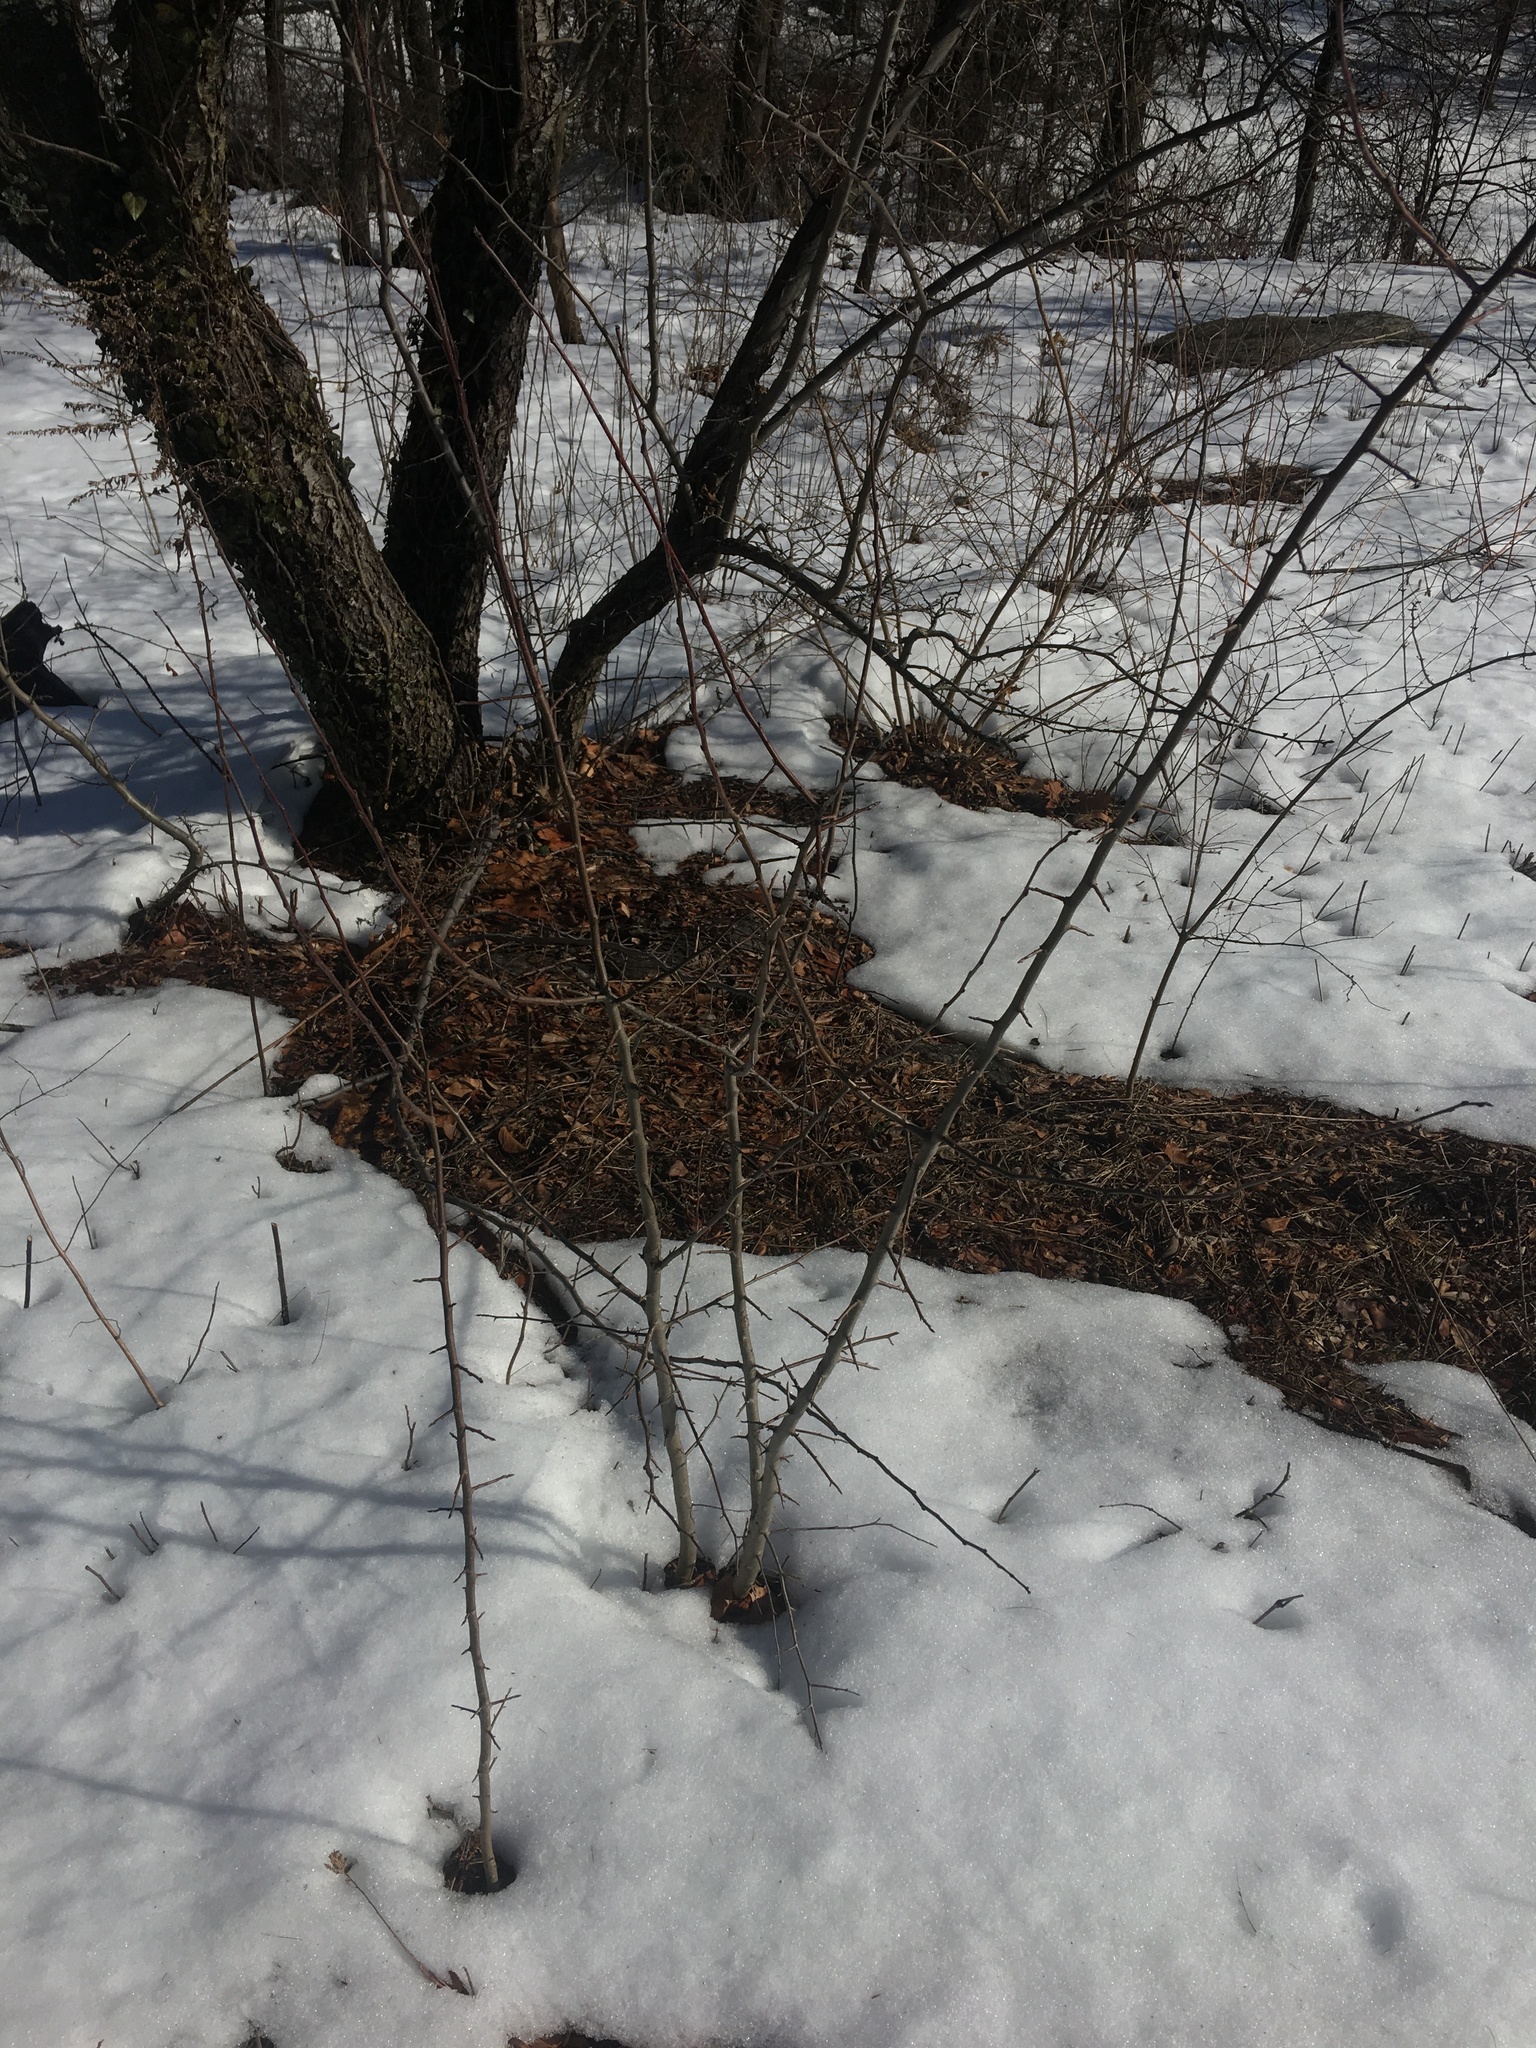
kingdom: Plantae
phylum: Tracheophyta
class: Magnoliopsida
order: Rosales
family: Rosaceae
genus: Malus
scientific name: Malus hupehensis
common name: Chinese crab apple
